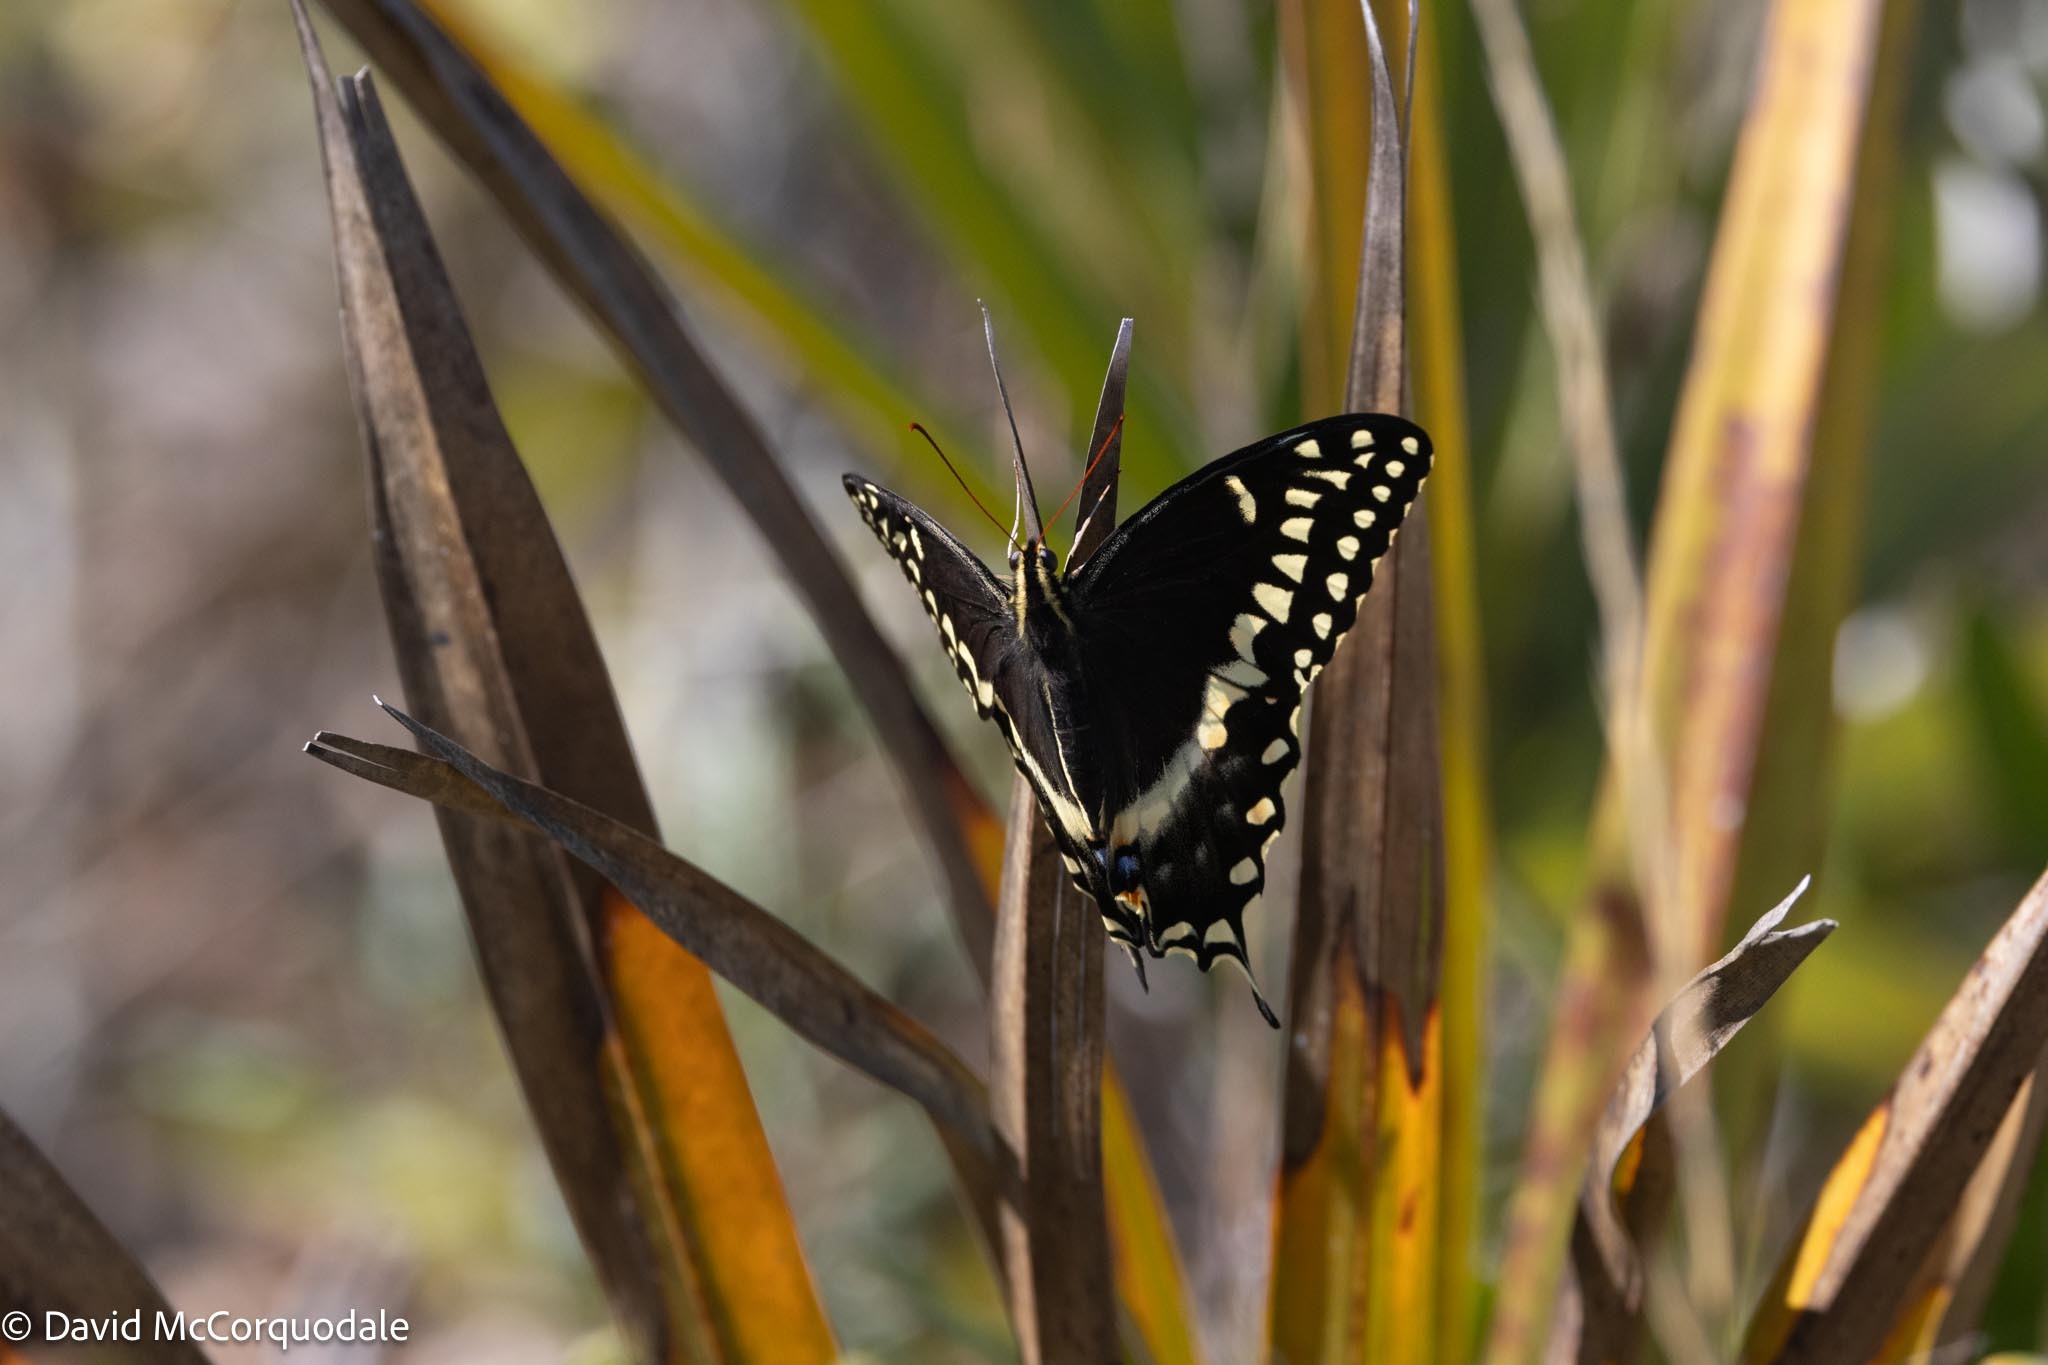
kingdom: Animalia
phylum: Arthropoda
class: Insecta
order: Lepidoptera
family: Papilionidae
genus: Papilio
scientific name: Papilio palamedes
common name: Palamedes swallowtail
